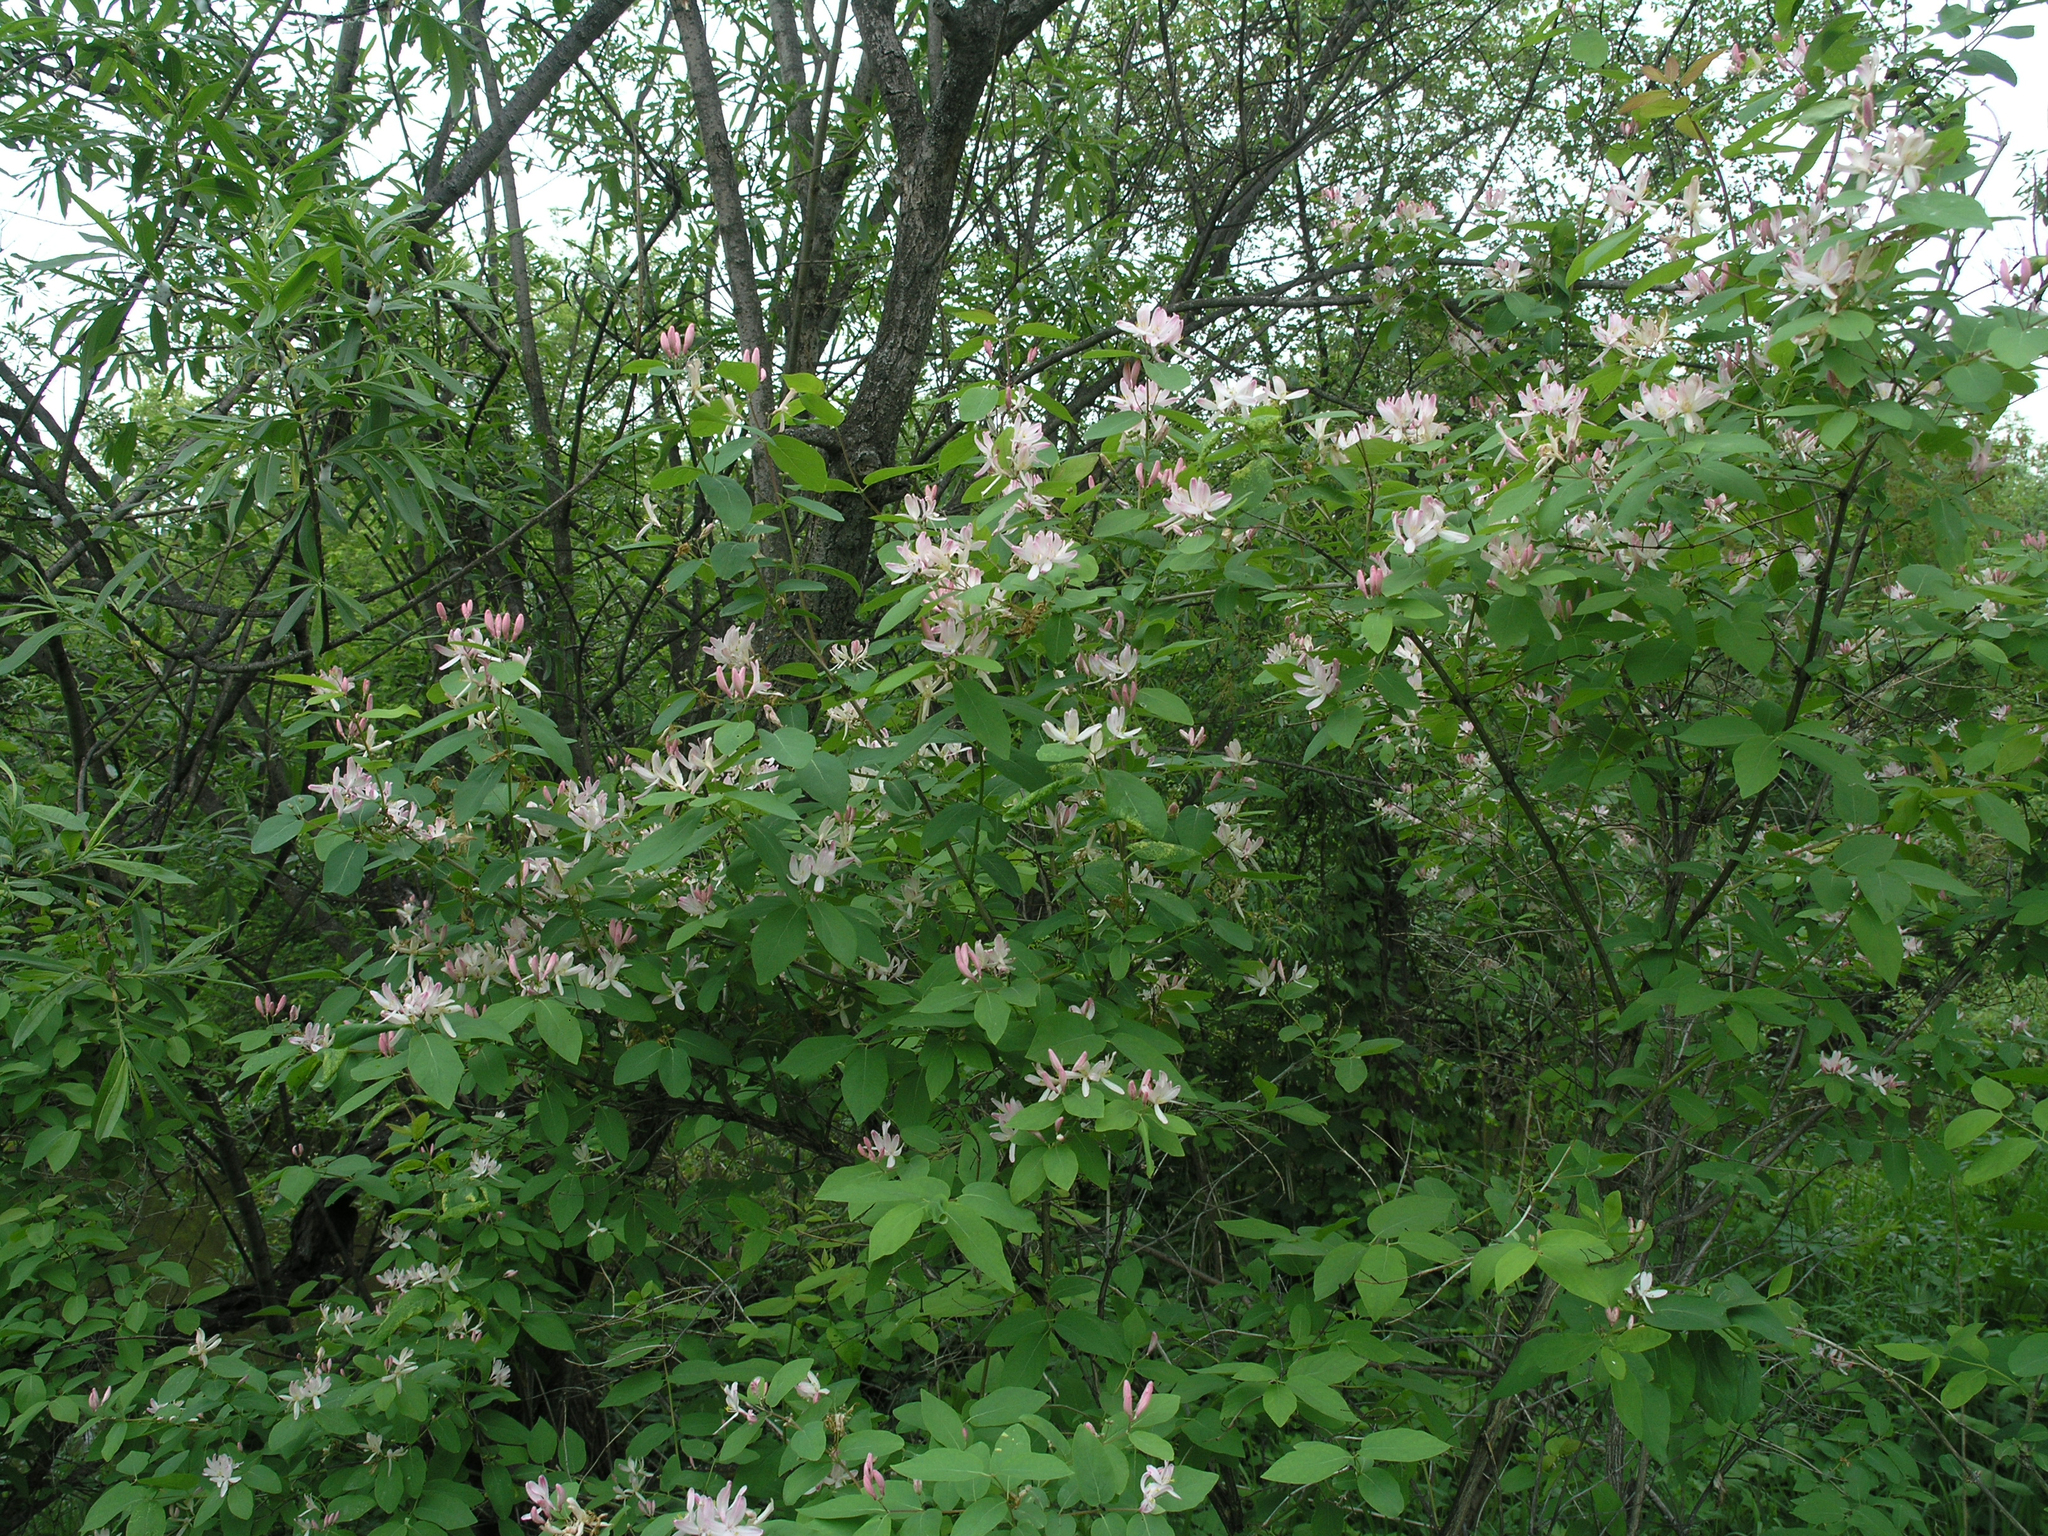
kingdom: Plantae
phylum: Tracheophyta
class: Magnoliopsida
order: Dipsacales
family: Caprifoliaceae
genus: Lonicera
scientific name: Lonicera tatarica
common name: Tatarian honeysuckle
